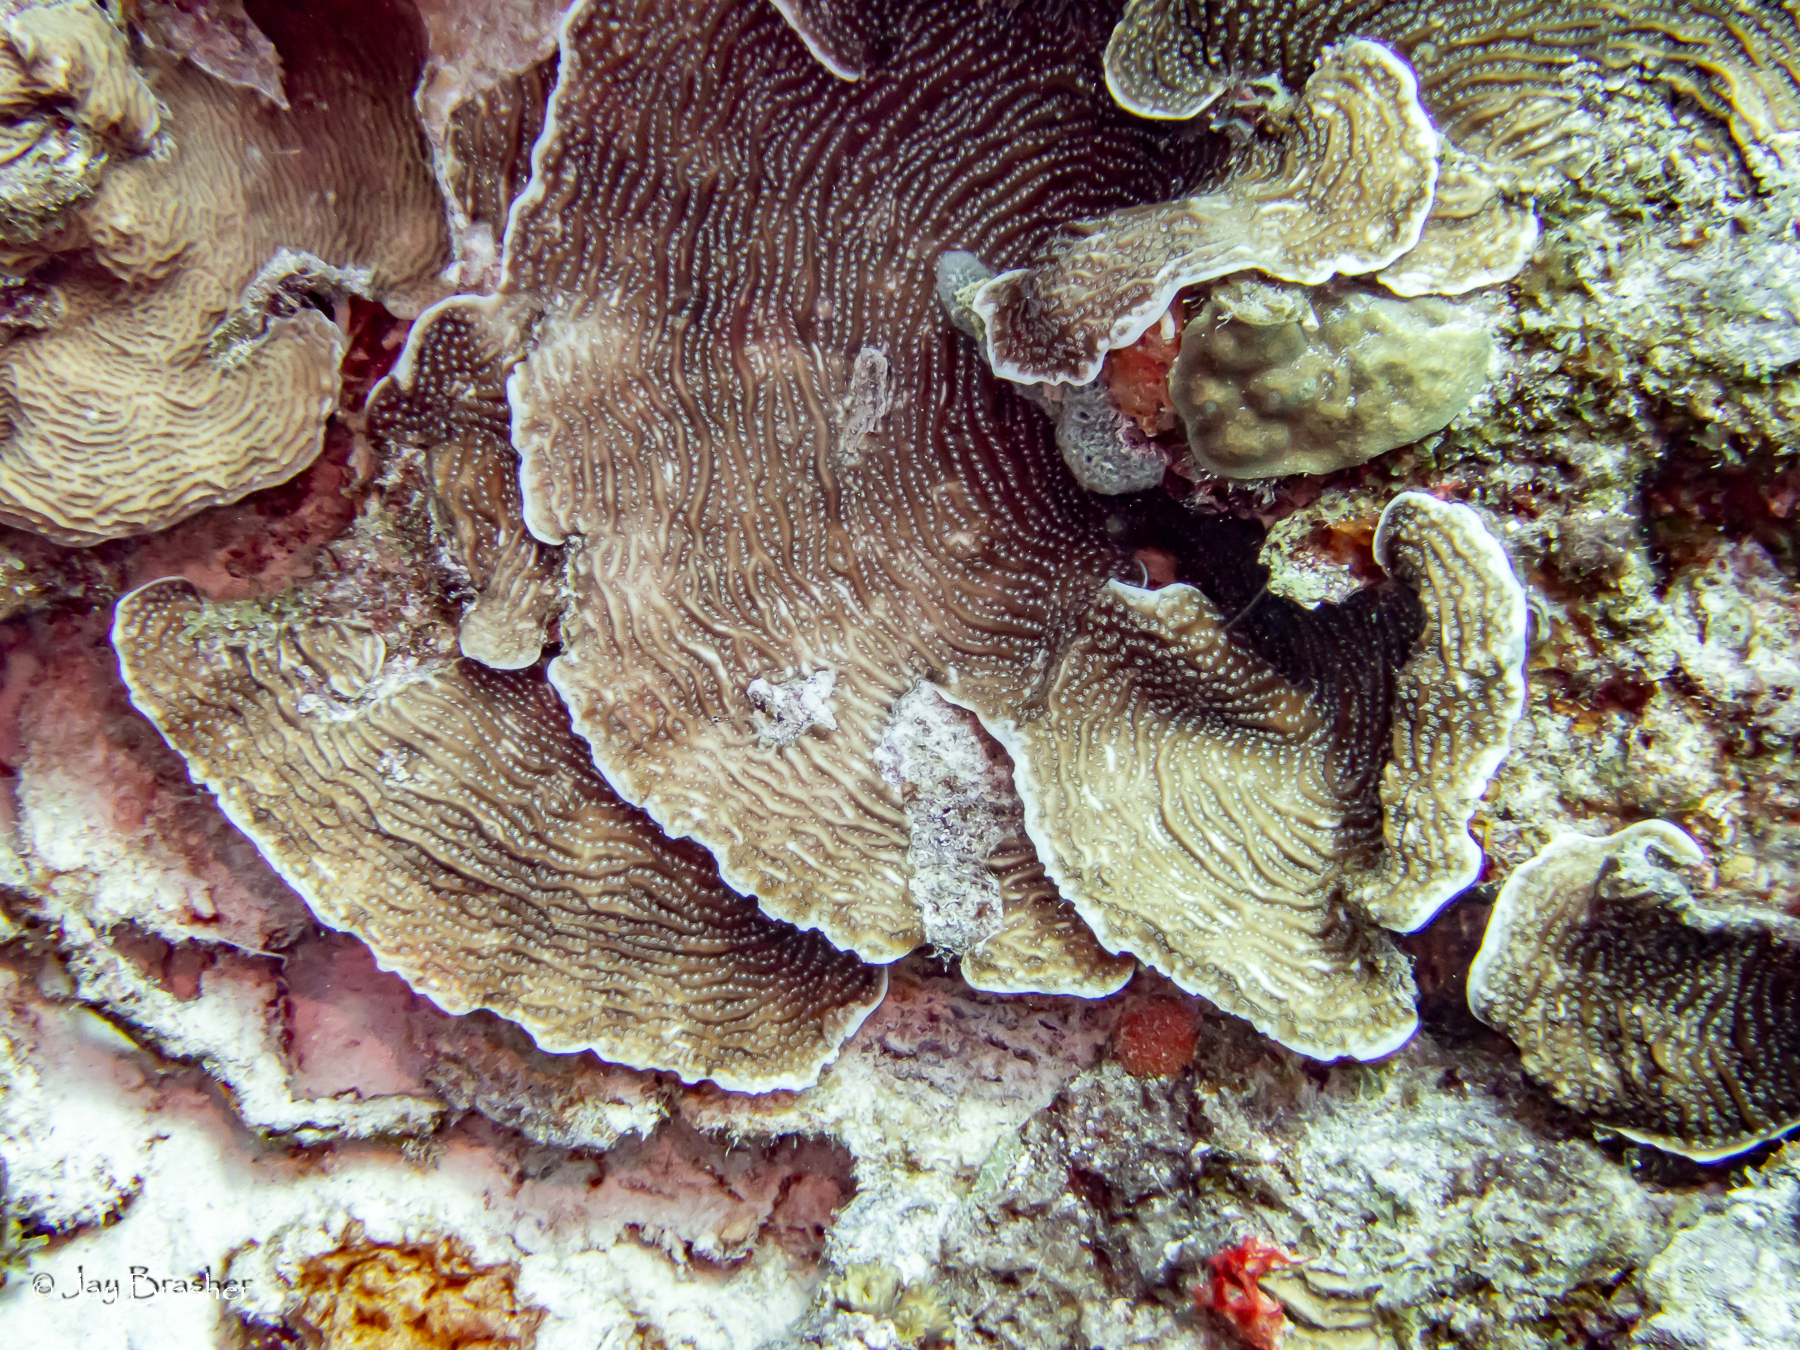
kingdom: Animalia
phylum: Cnidaria
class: Anthozoa
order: Scleractinia
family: Agariciidae
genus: Agaricia
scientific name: Agaricia lamarcki
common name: Lamarck's sheet coral
